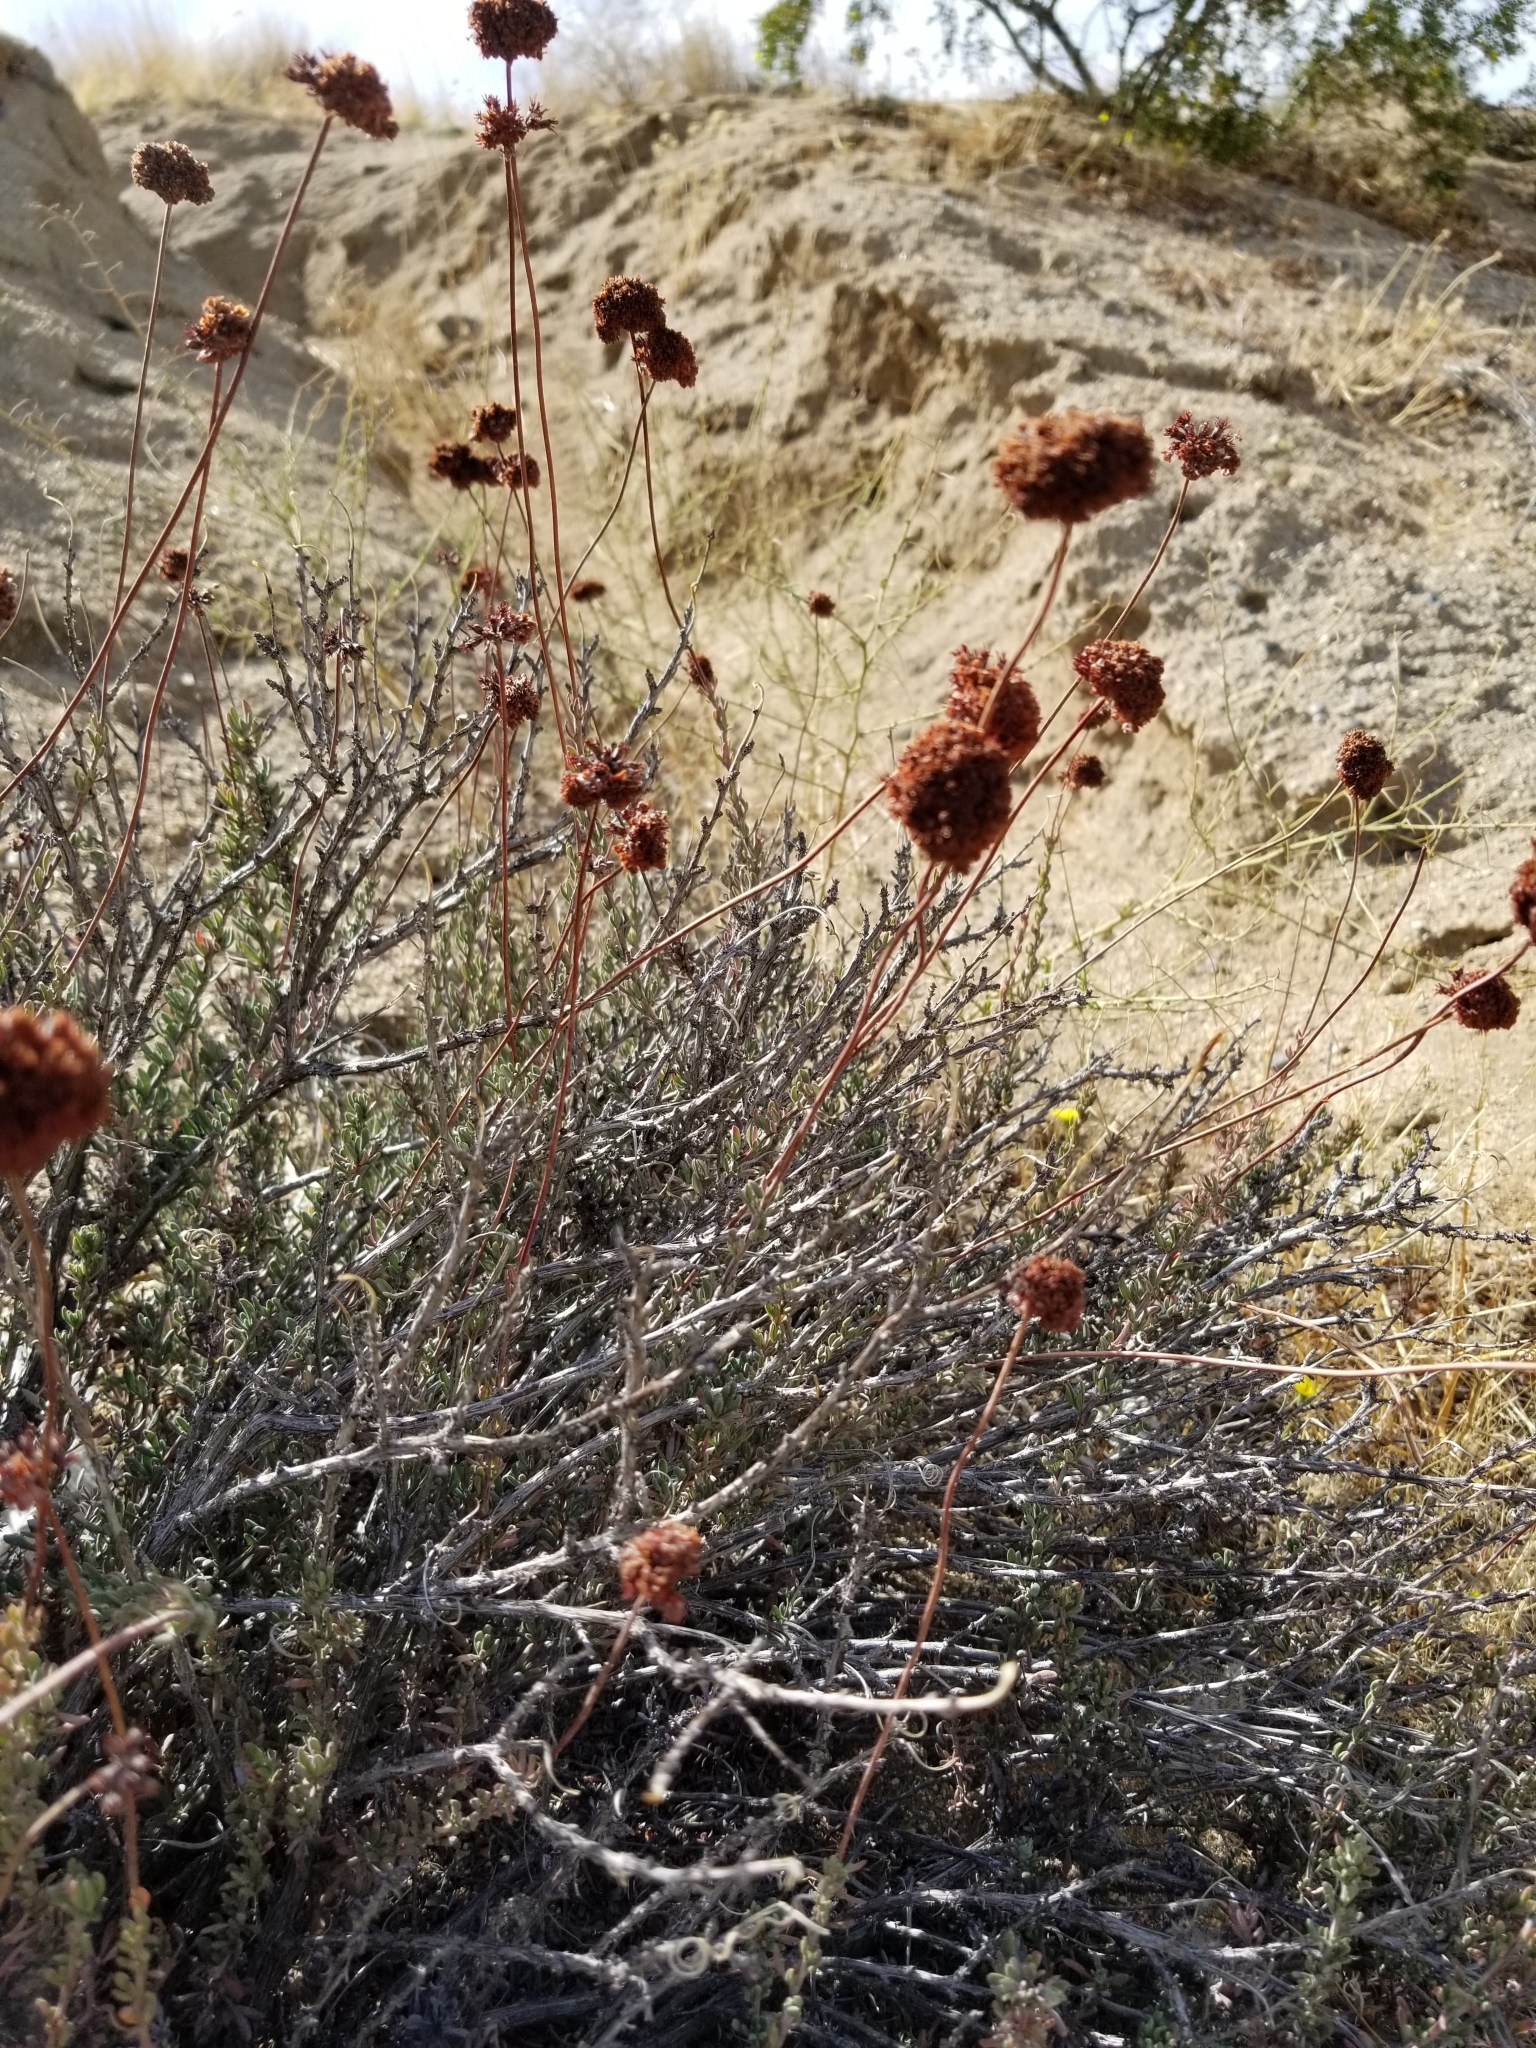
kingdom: Plantae
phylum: Tracheophyta
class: Magnoliopsida
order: Caryophyllales
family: Polygonaceae
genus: Eriogonum
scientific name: Eriogonum fasciculatum
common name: California wild buckwheat
